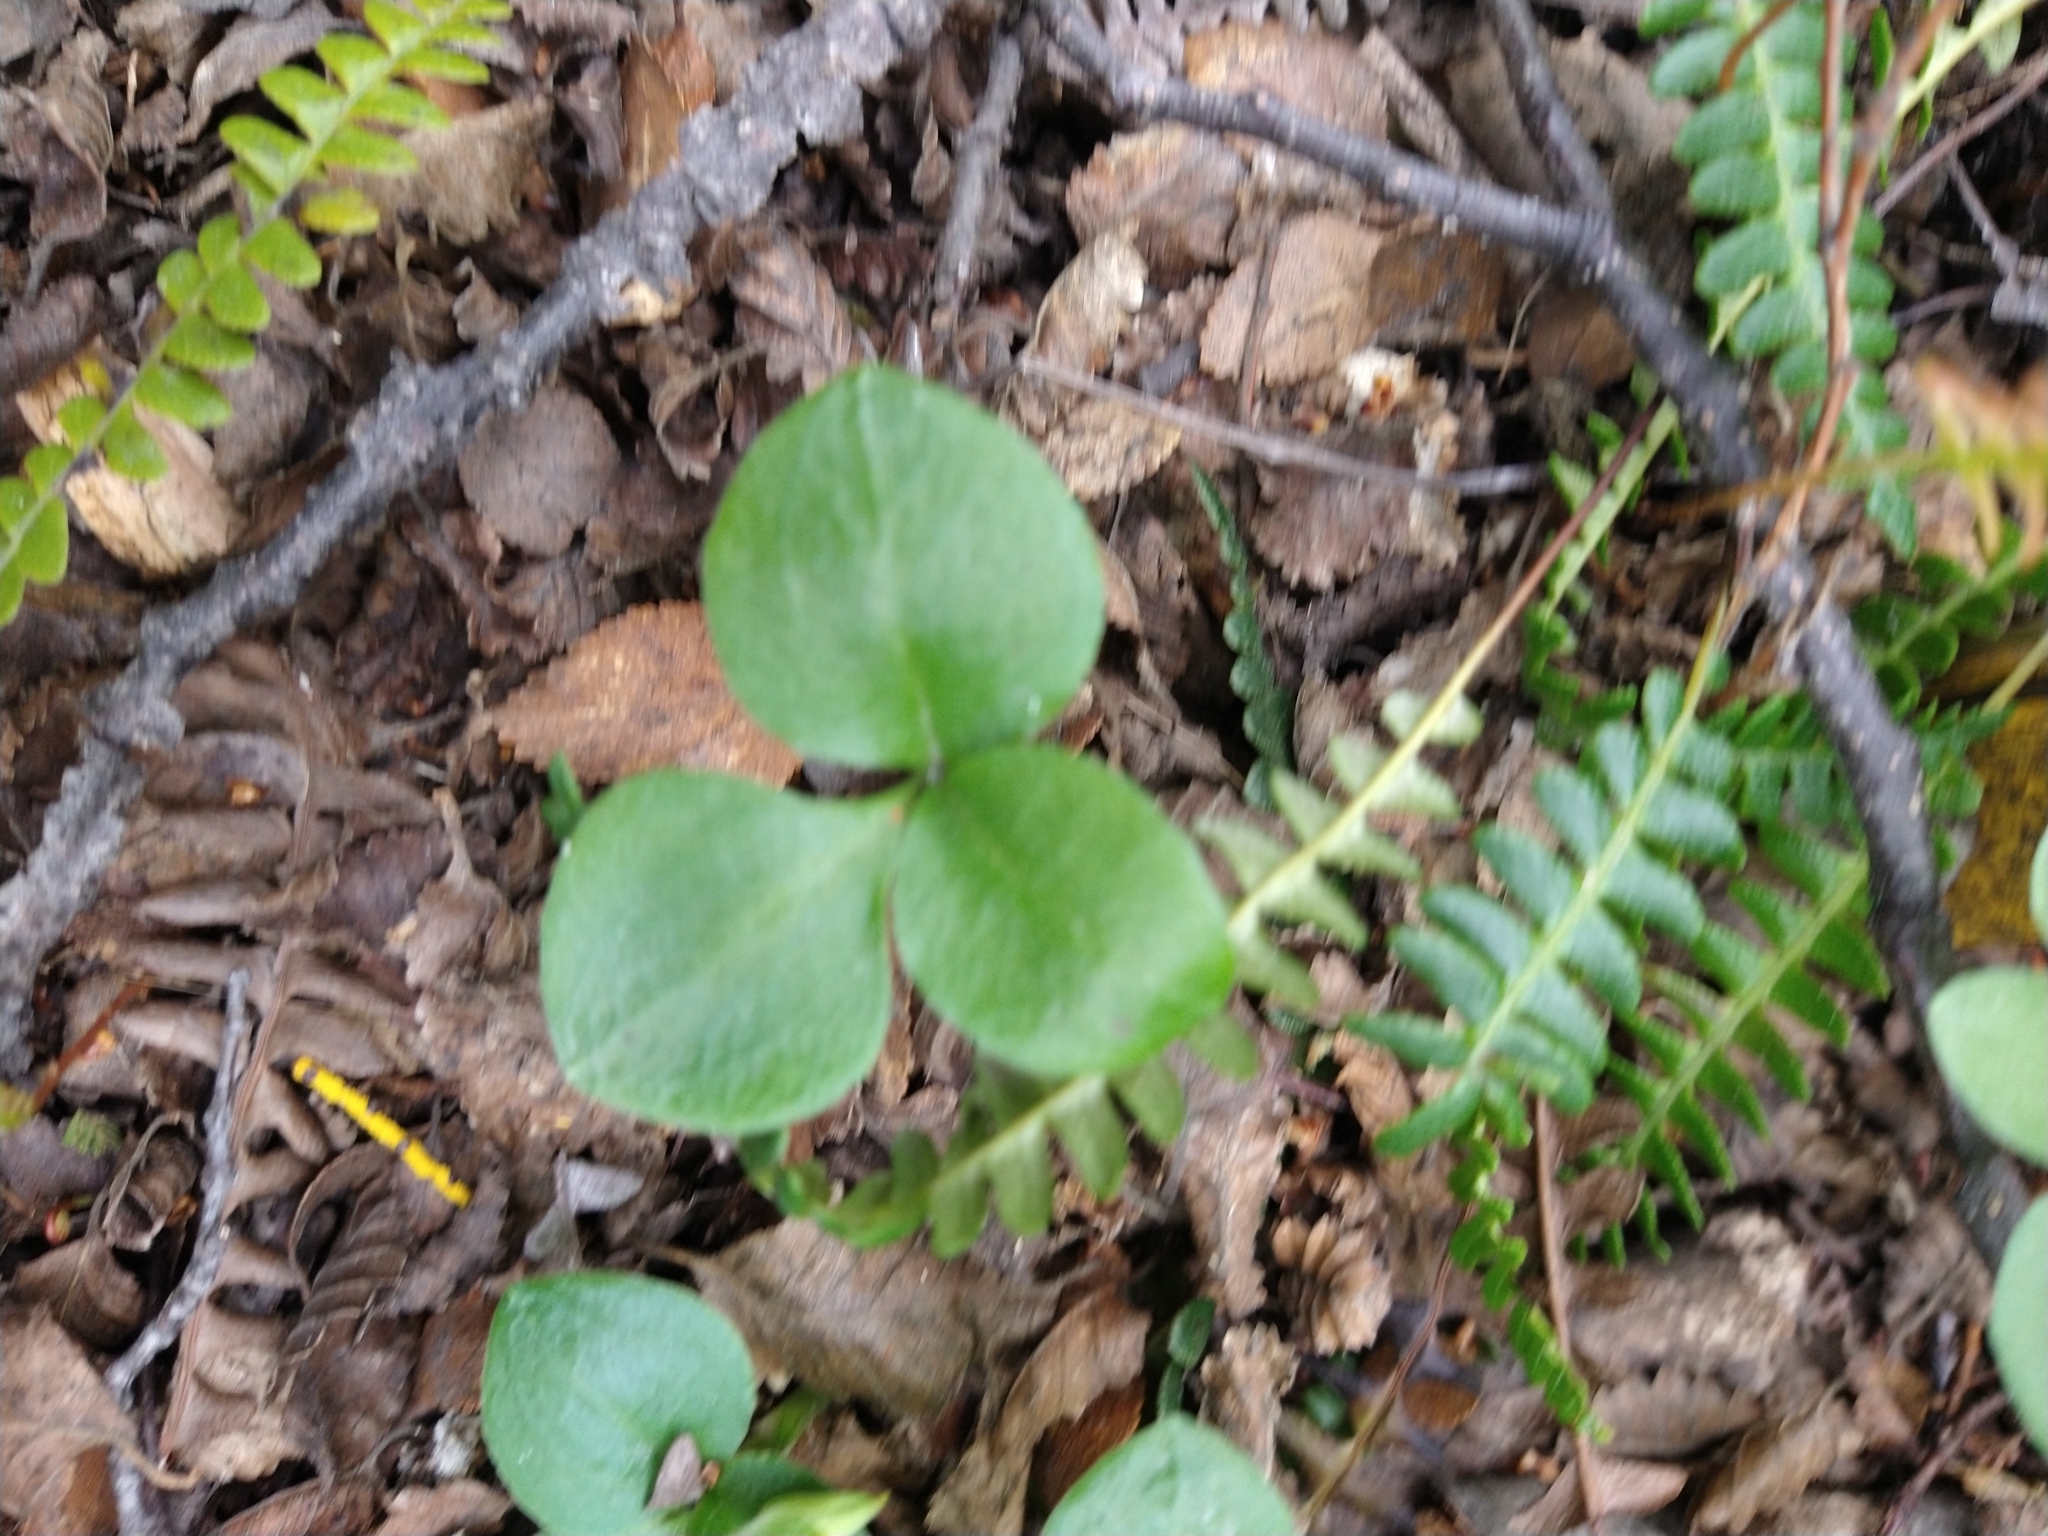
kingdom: Plantae
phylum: Tracheophyta
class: Liliopsida
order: Asparagales
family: Orchidaceae
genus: Codonorchis
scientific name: Codonorchis lessonii
